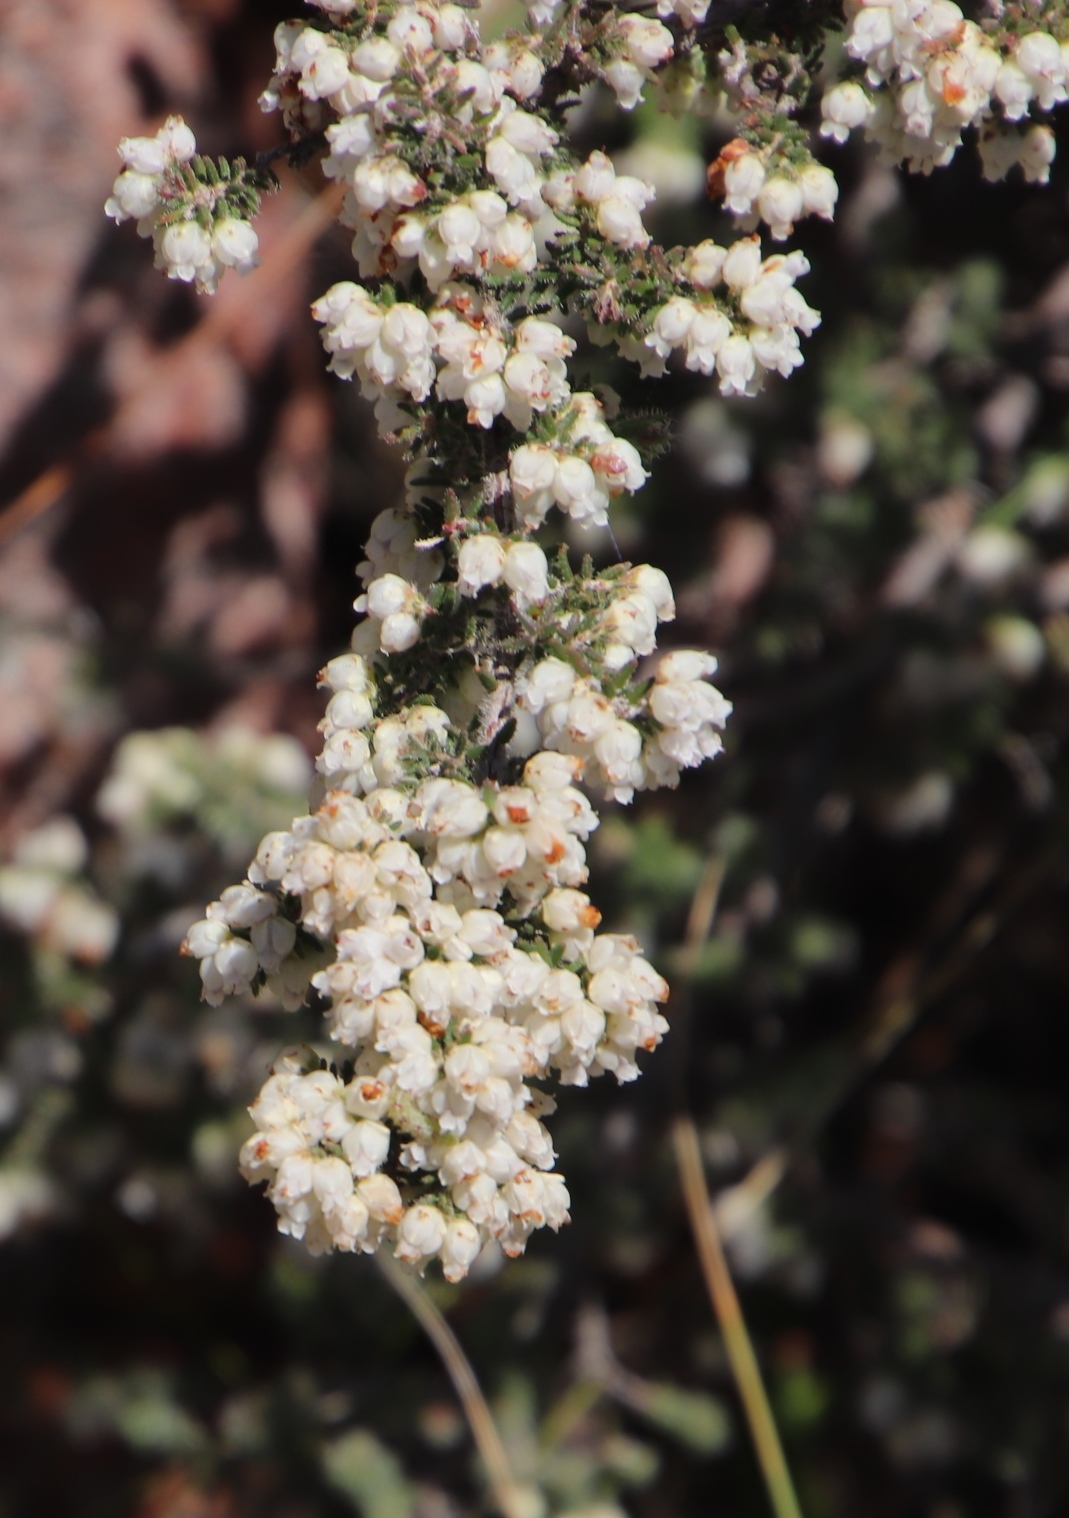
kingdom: Plantae
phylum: Tracheophyta
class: Magnoliopsida
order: Ericales
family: Ericaceae
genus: Erica
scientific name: Erica totta
